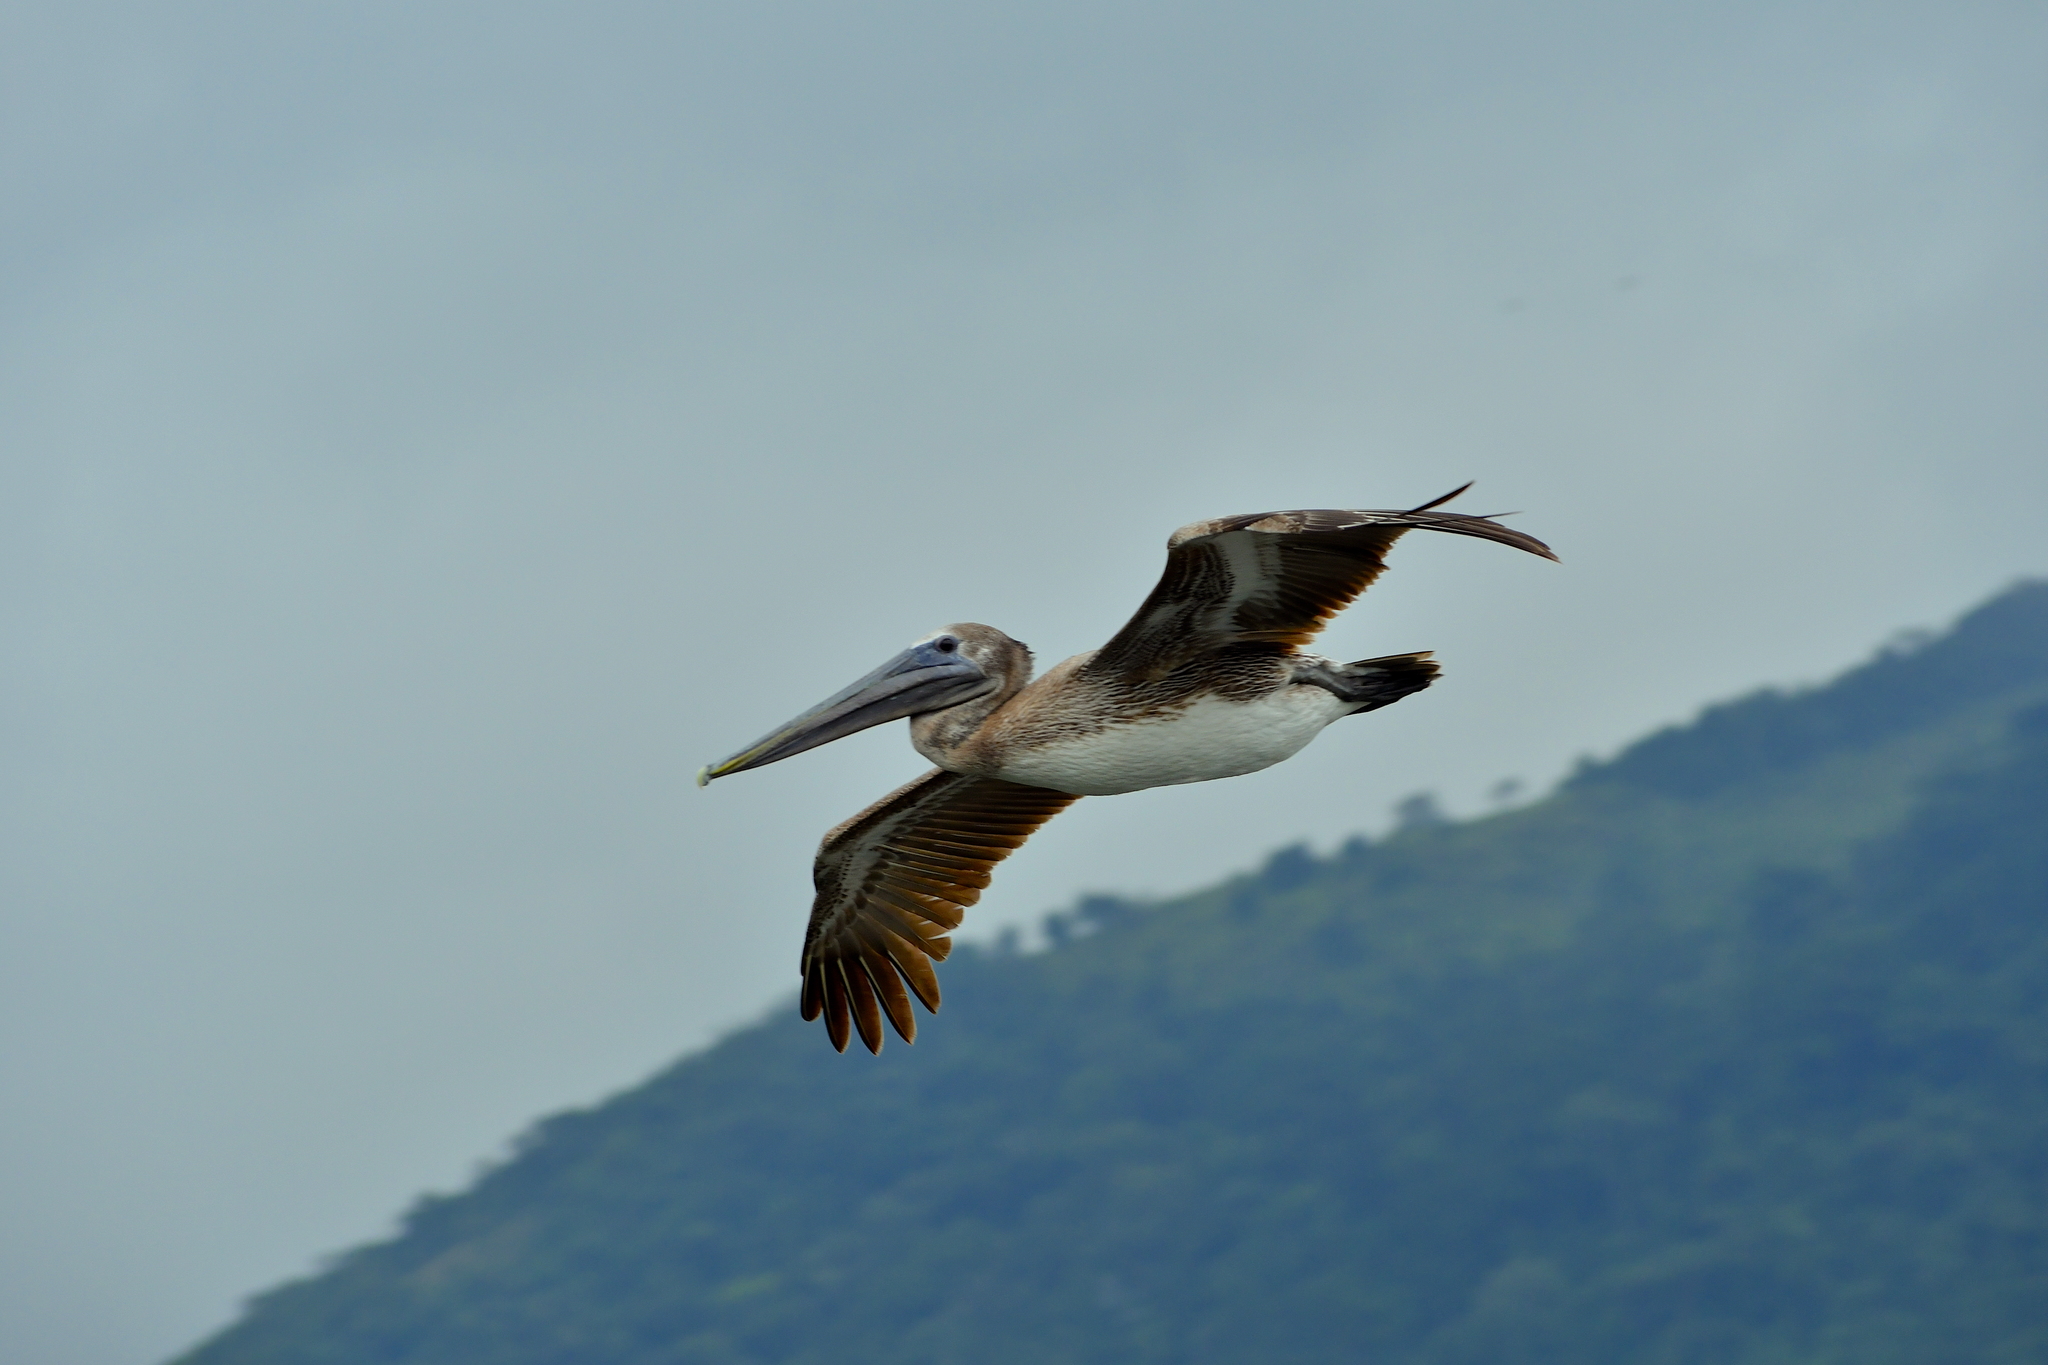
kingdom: Animalia
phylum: Chordata
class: Aves
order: Pelecaniformes
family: Pelecanidae
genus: Pelecanus
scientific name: Pelecanus occidentalis
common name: Brown pelican
